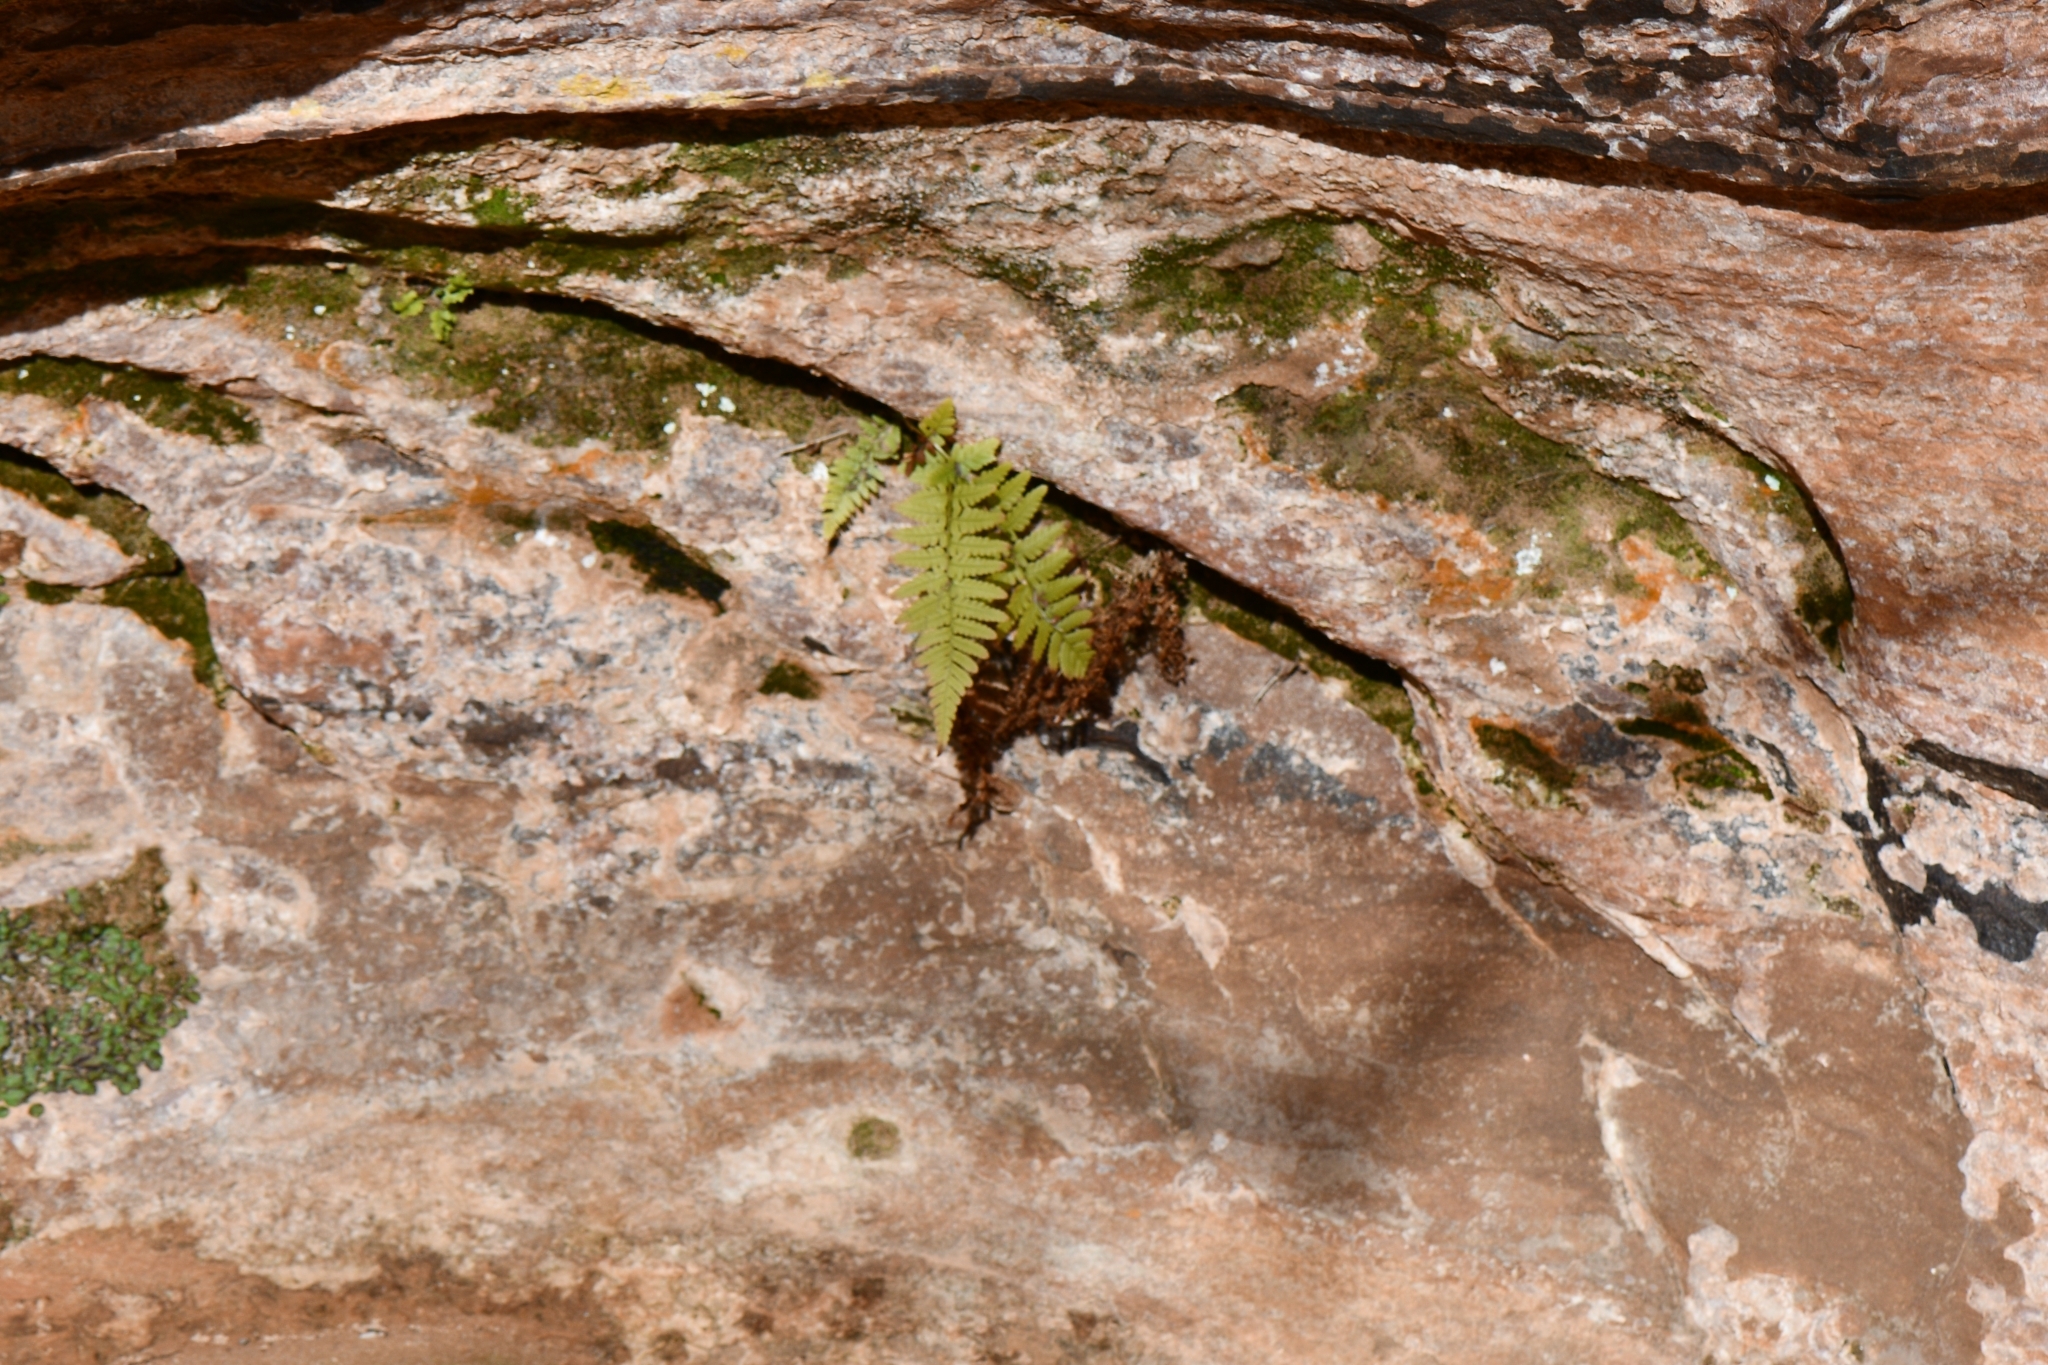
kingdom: Plantae
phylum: Tracheophyta
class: Polypodiopsida
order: Polypodiales
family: Dryopteridaceae
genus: Dryopteris
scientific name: Dryopteris filix-mas
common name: Male fern
